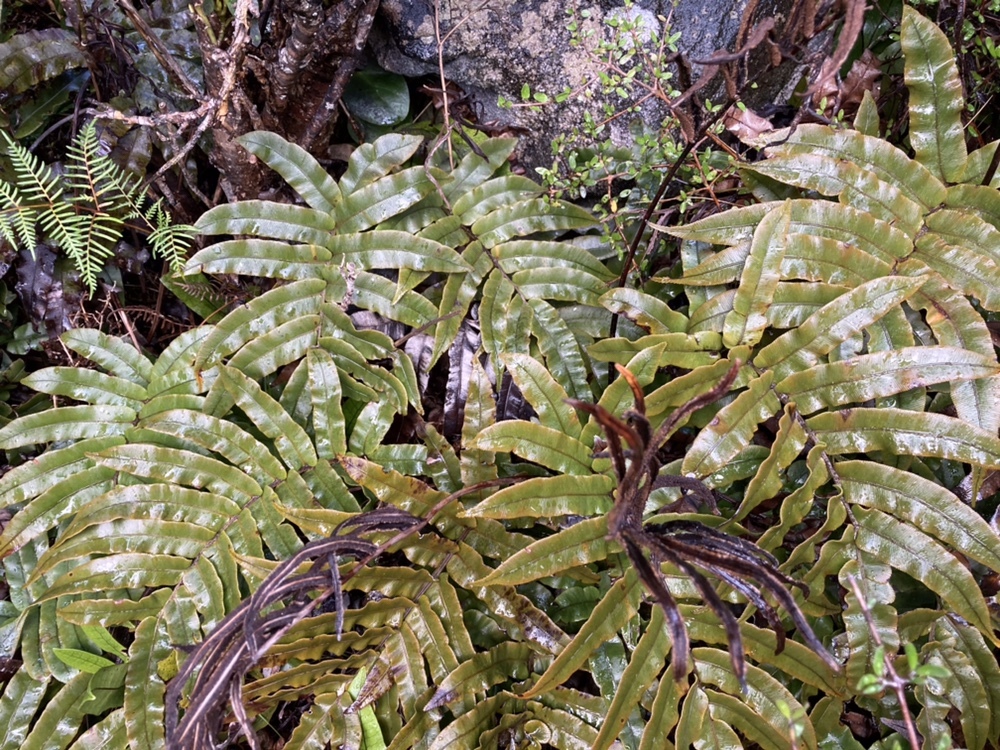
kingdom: Plantae
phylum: Tracheophyta
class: Polypodiopsida
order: Polypodiales
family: Blechnaceae
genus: Parablechnum
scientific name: Parablechnum procerum
